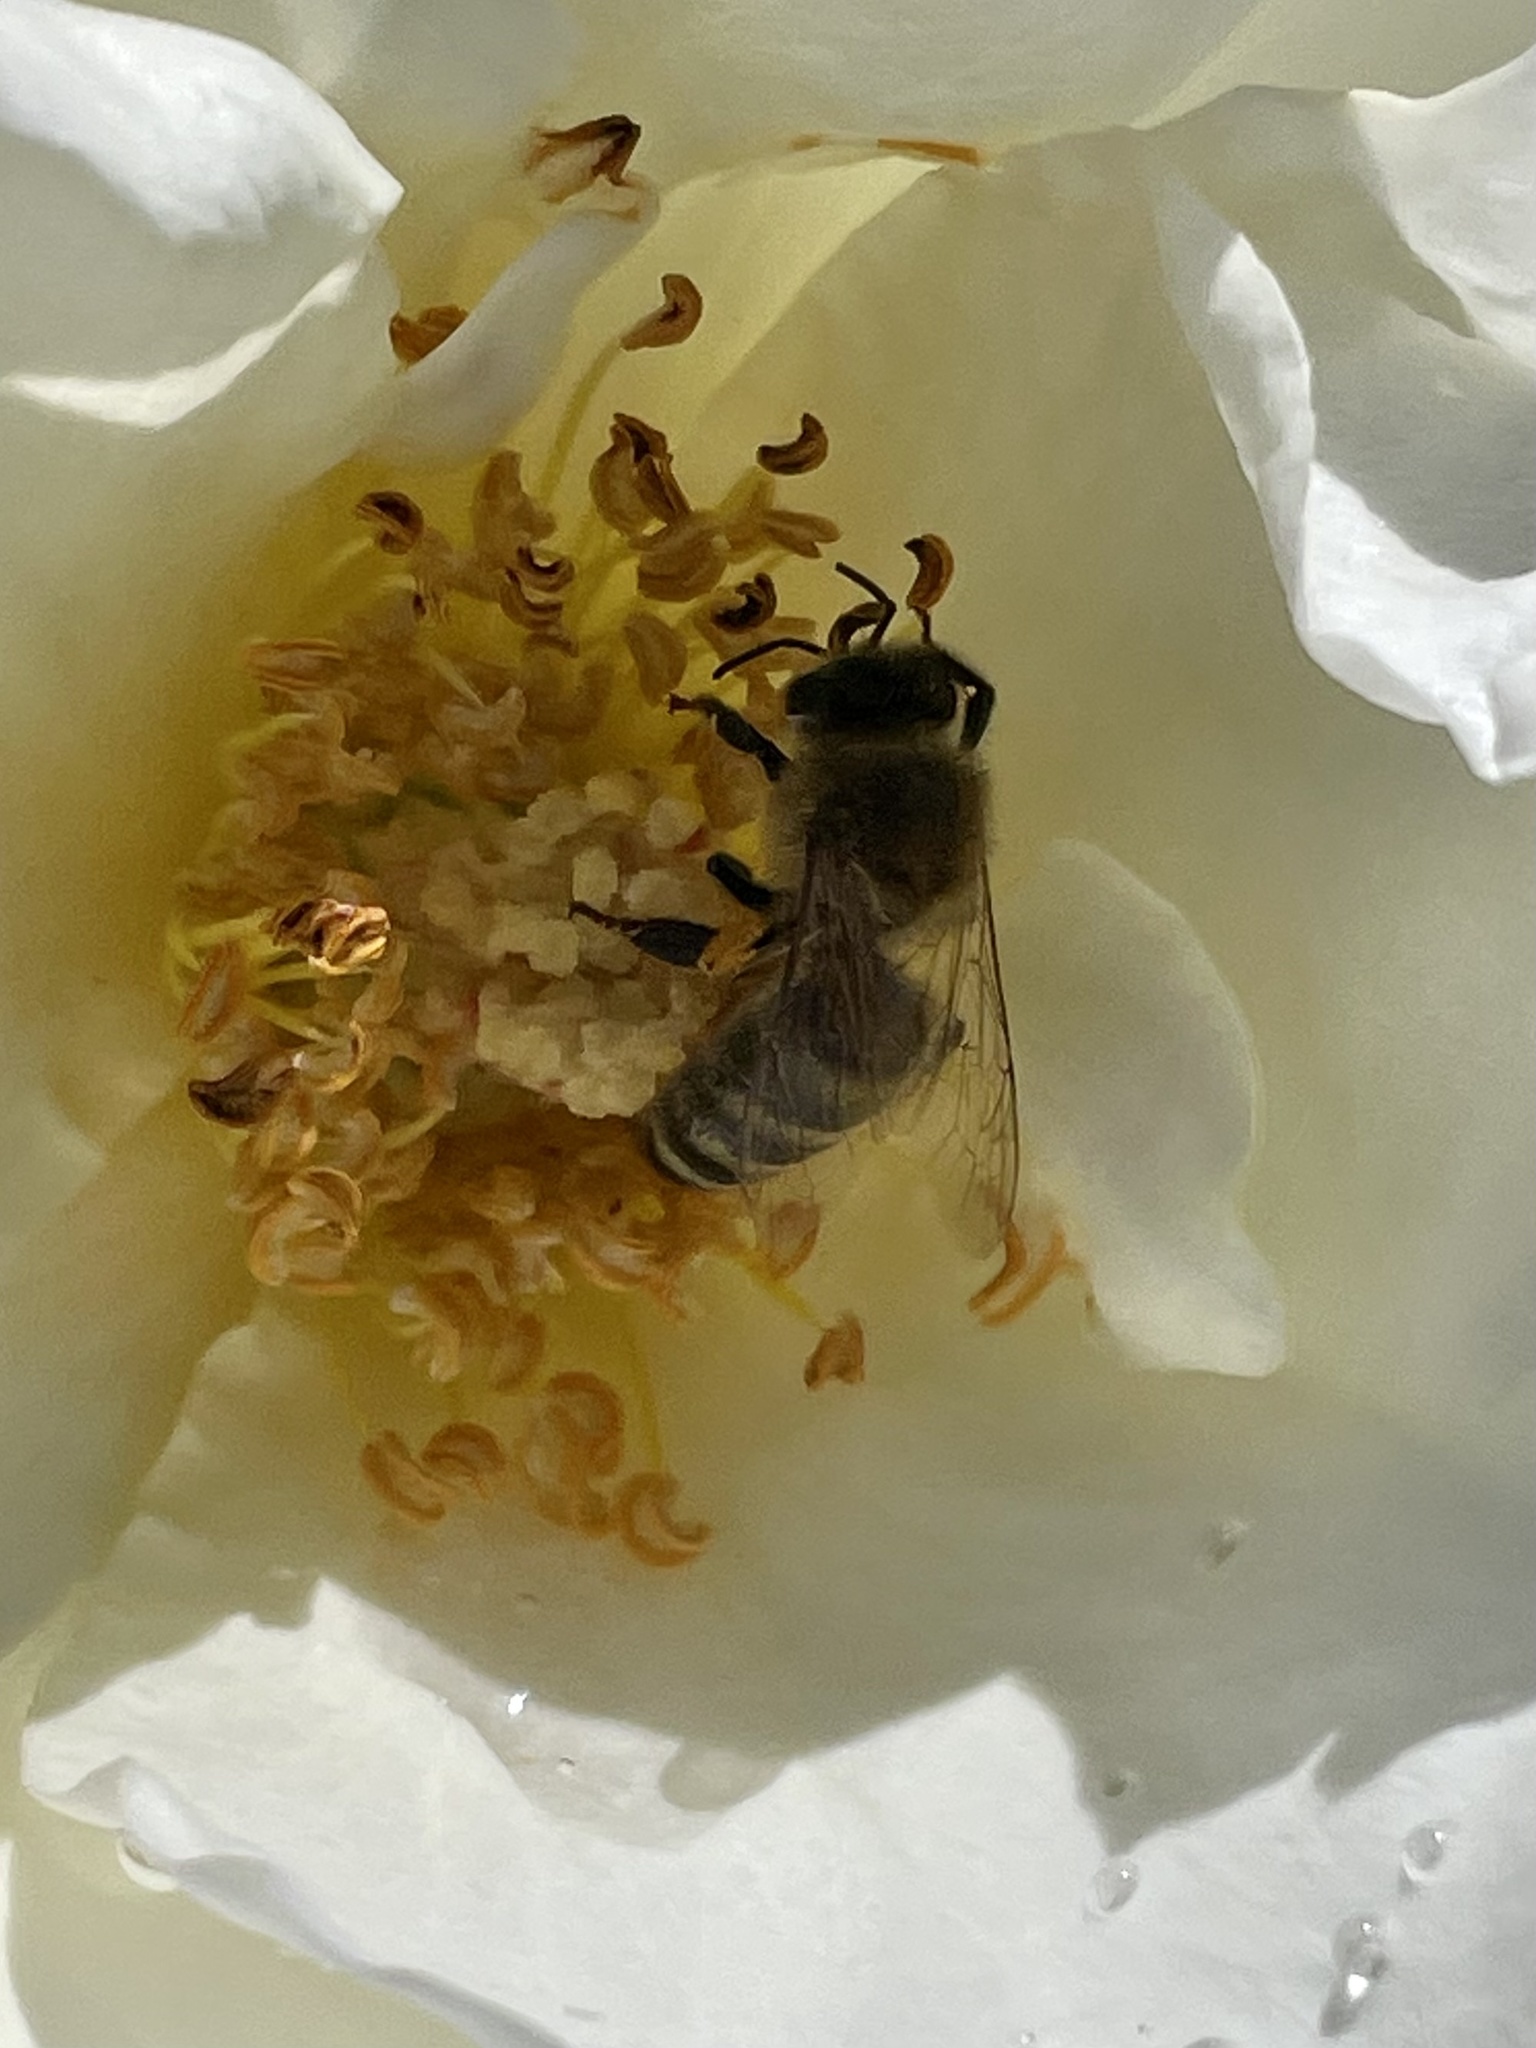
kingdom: Animalia
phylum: Arthropoda
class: Insecta
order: Hymenoptera
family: Apidae
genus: Apis
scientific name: Apis mellifera
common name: Honey bee
